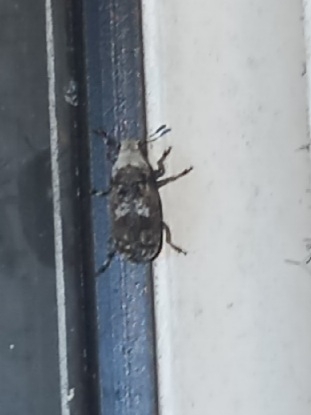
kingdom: Animalia
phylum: Arthropoda
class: Insecta
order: Coleoptera
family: Anthribidae
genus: Euparius
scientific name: Euparius marmoreus
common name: Marbled fungus weevil
